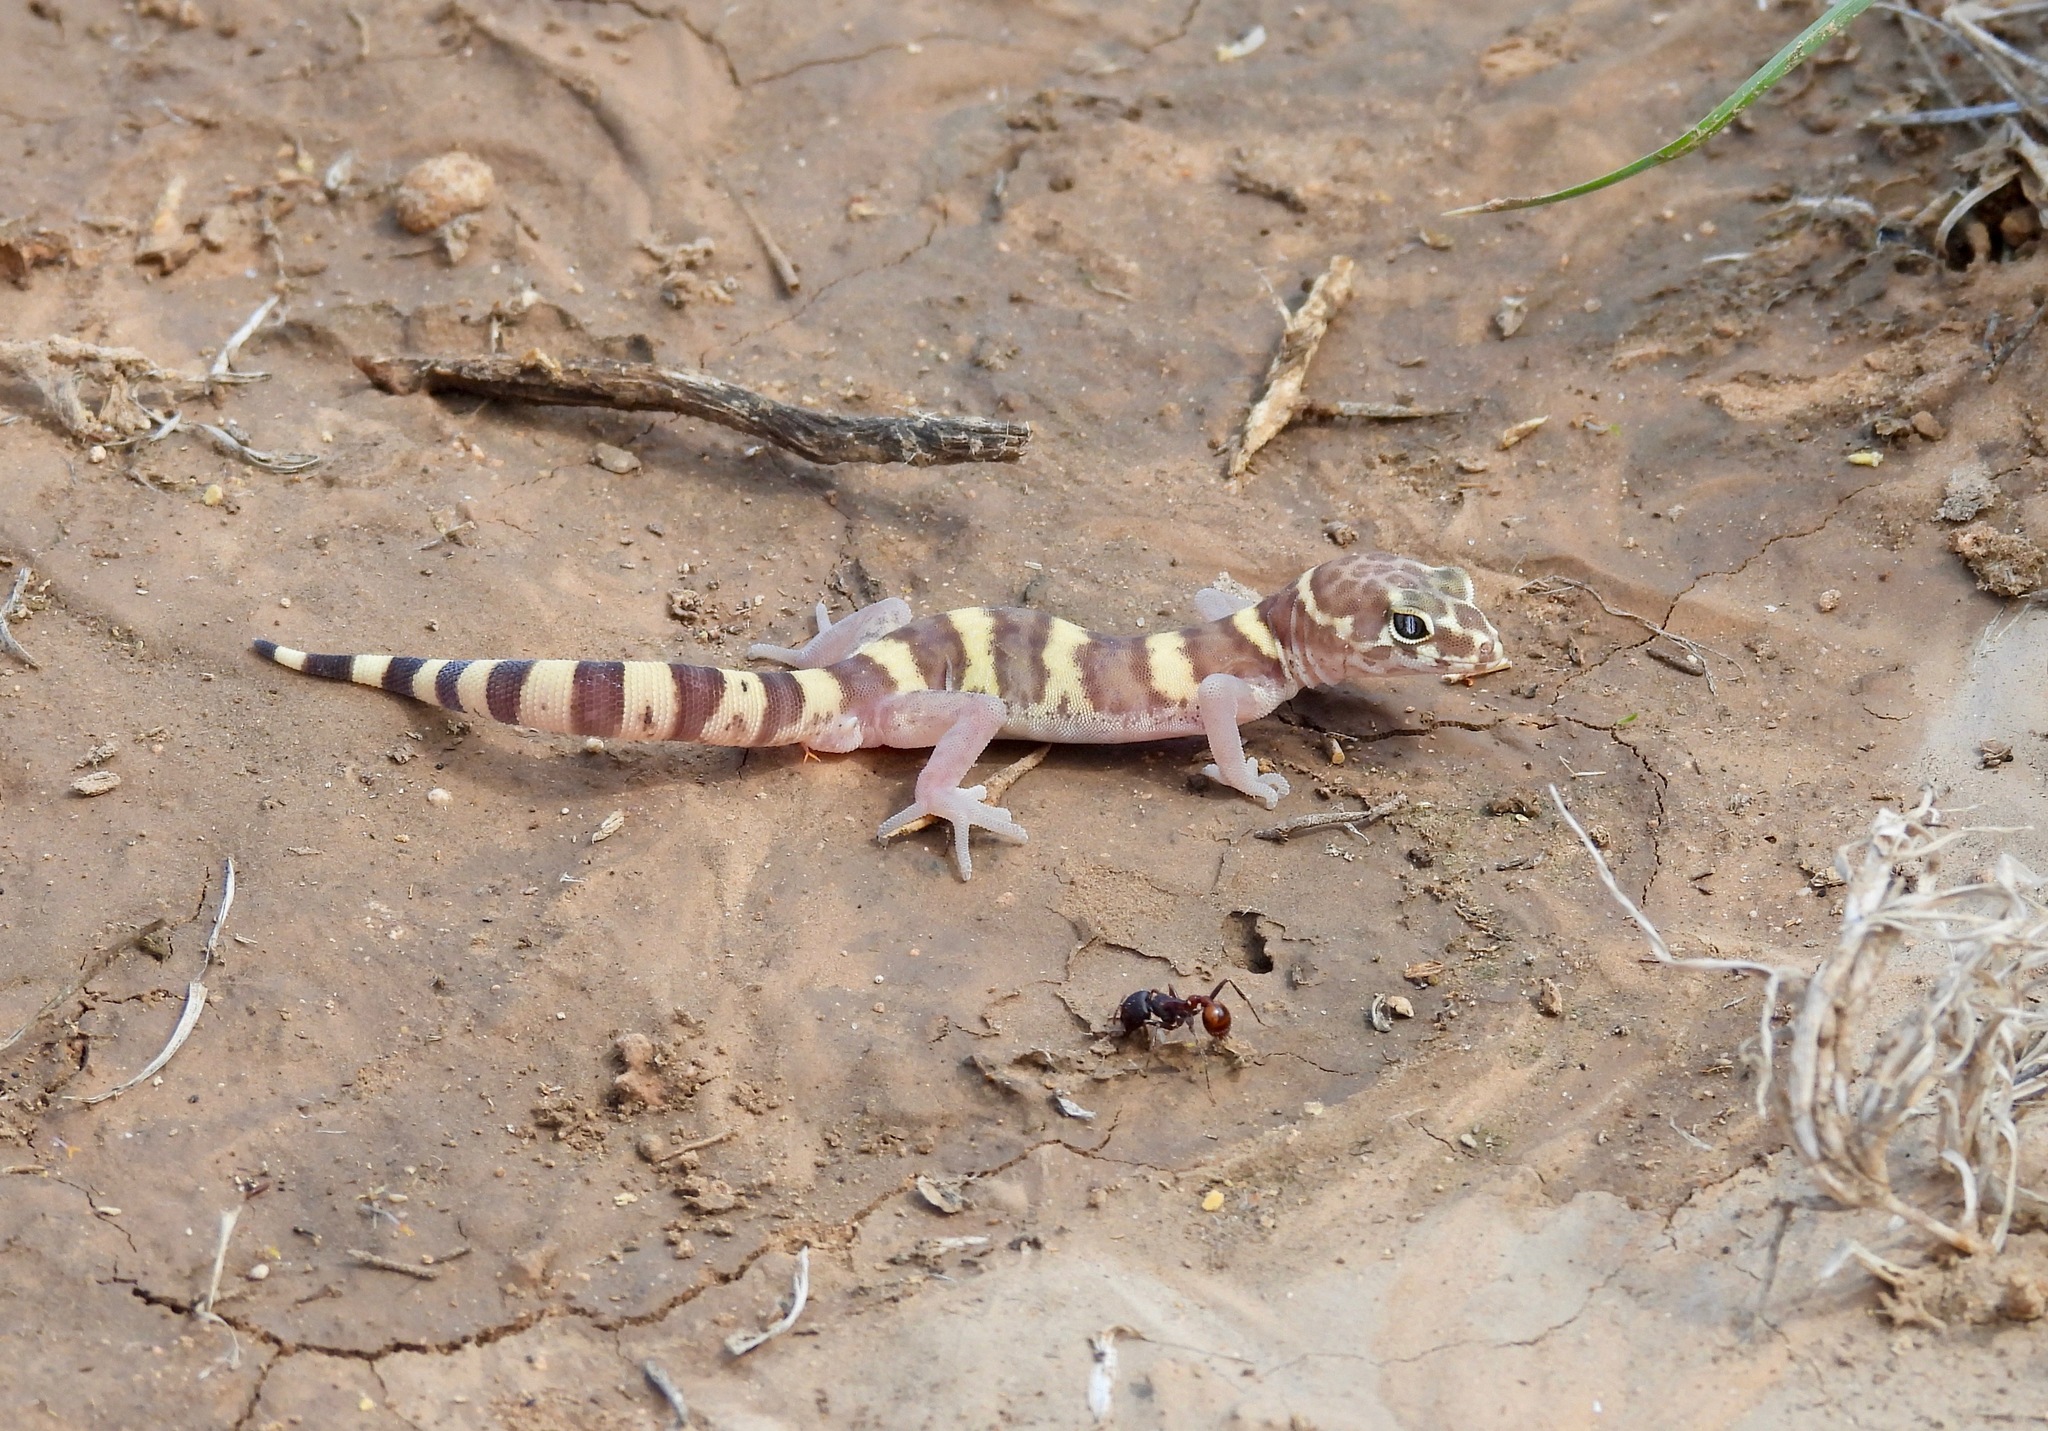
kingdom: Animalia
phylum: Chordata
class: Squamata
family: Eublepharidae
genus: Coleonyx
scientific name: Coleonyx brevis
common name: Texas banded gecko
